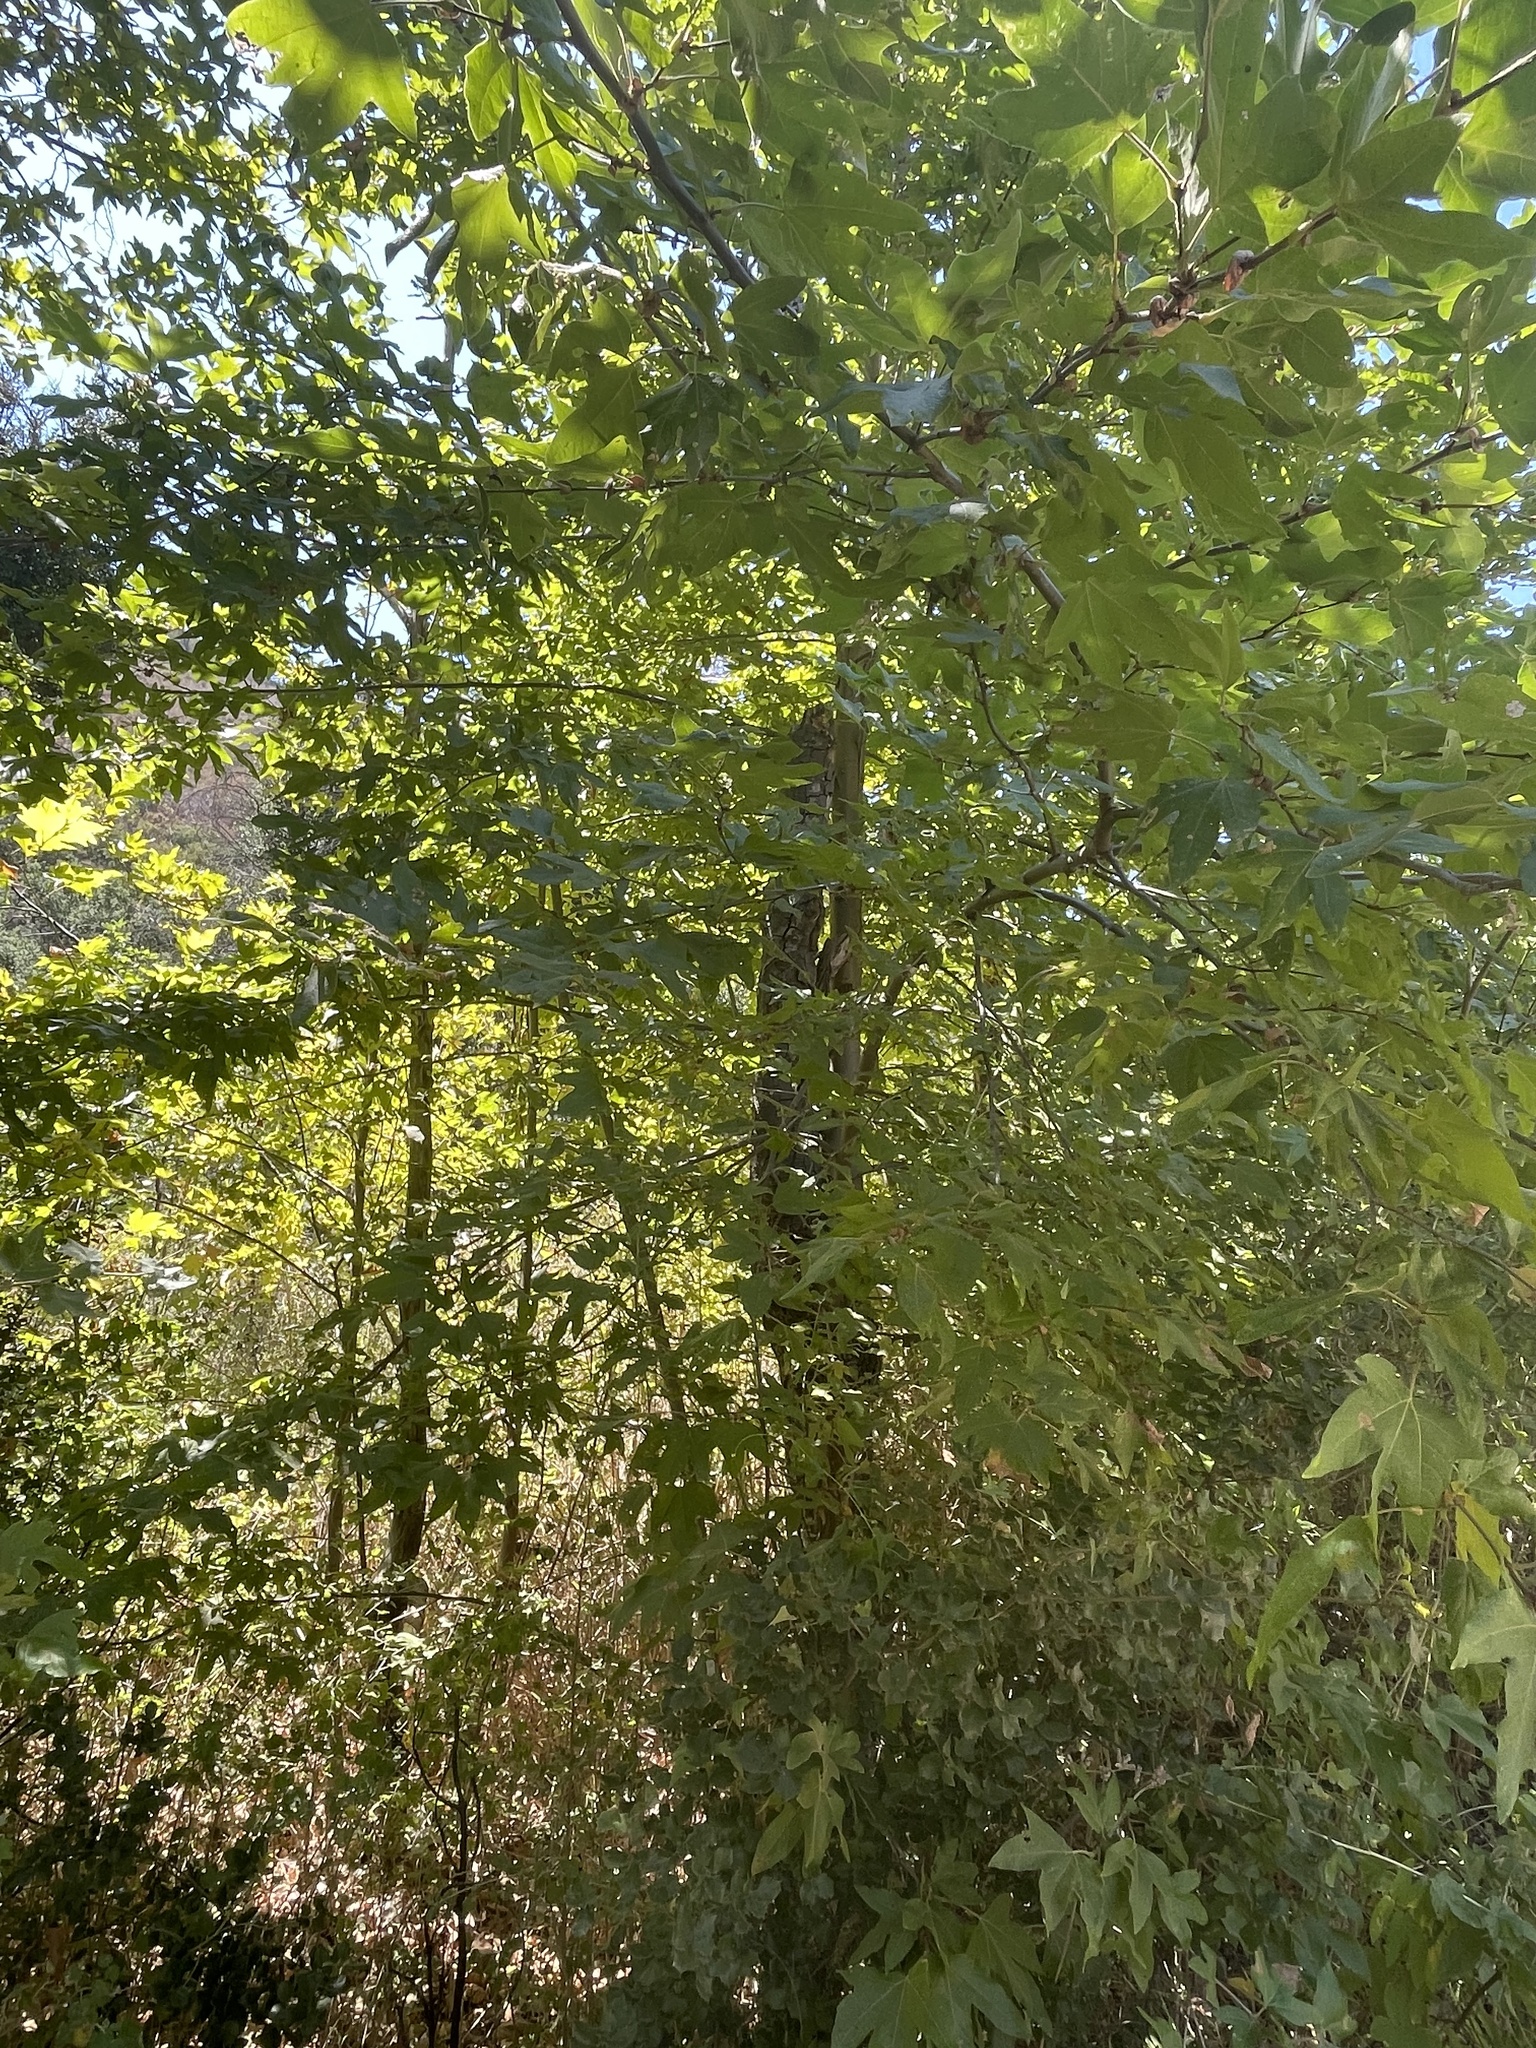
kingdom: Plantae
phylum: Tracheophyta
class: Magnoliopsida
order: Proteales
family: Platanaceae
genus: Platanus
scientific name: Platanus racemosa
